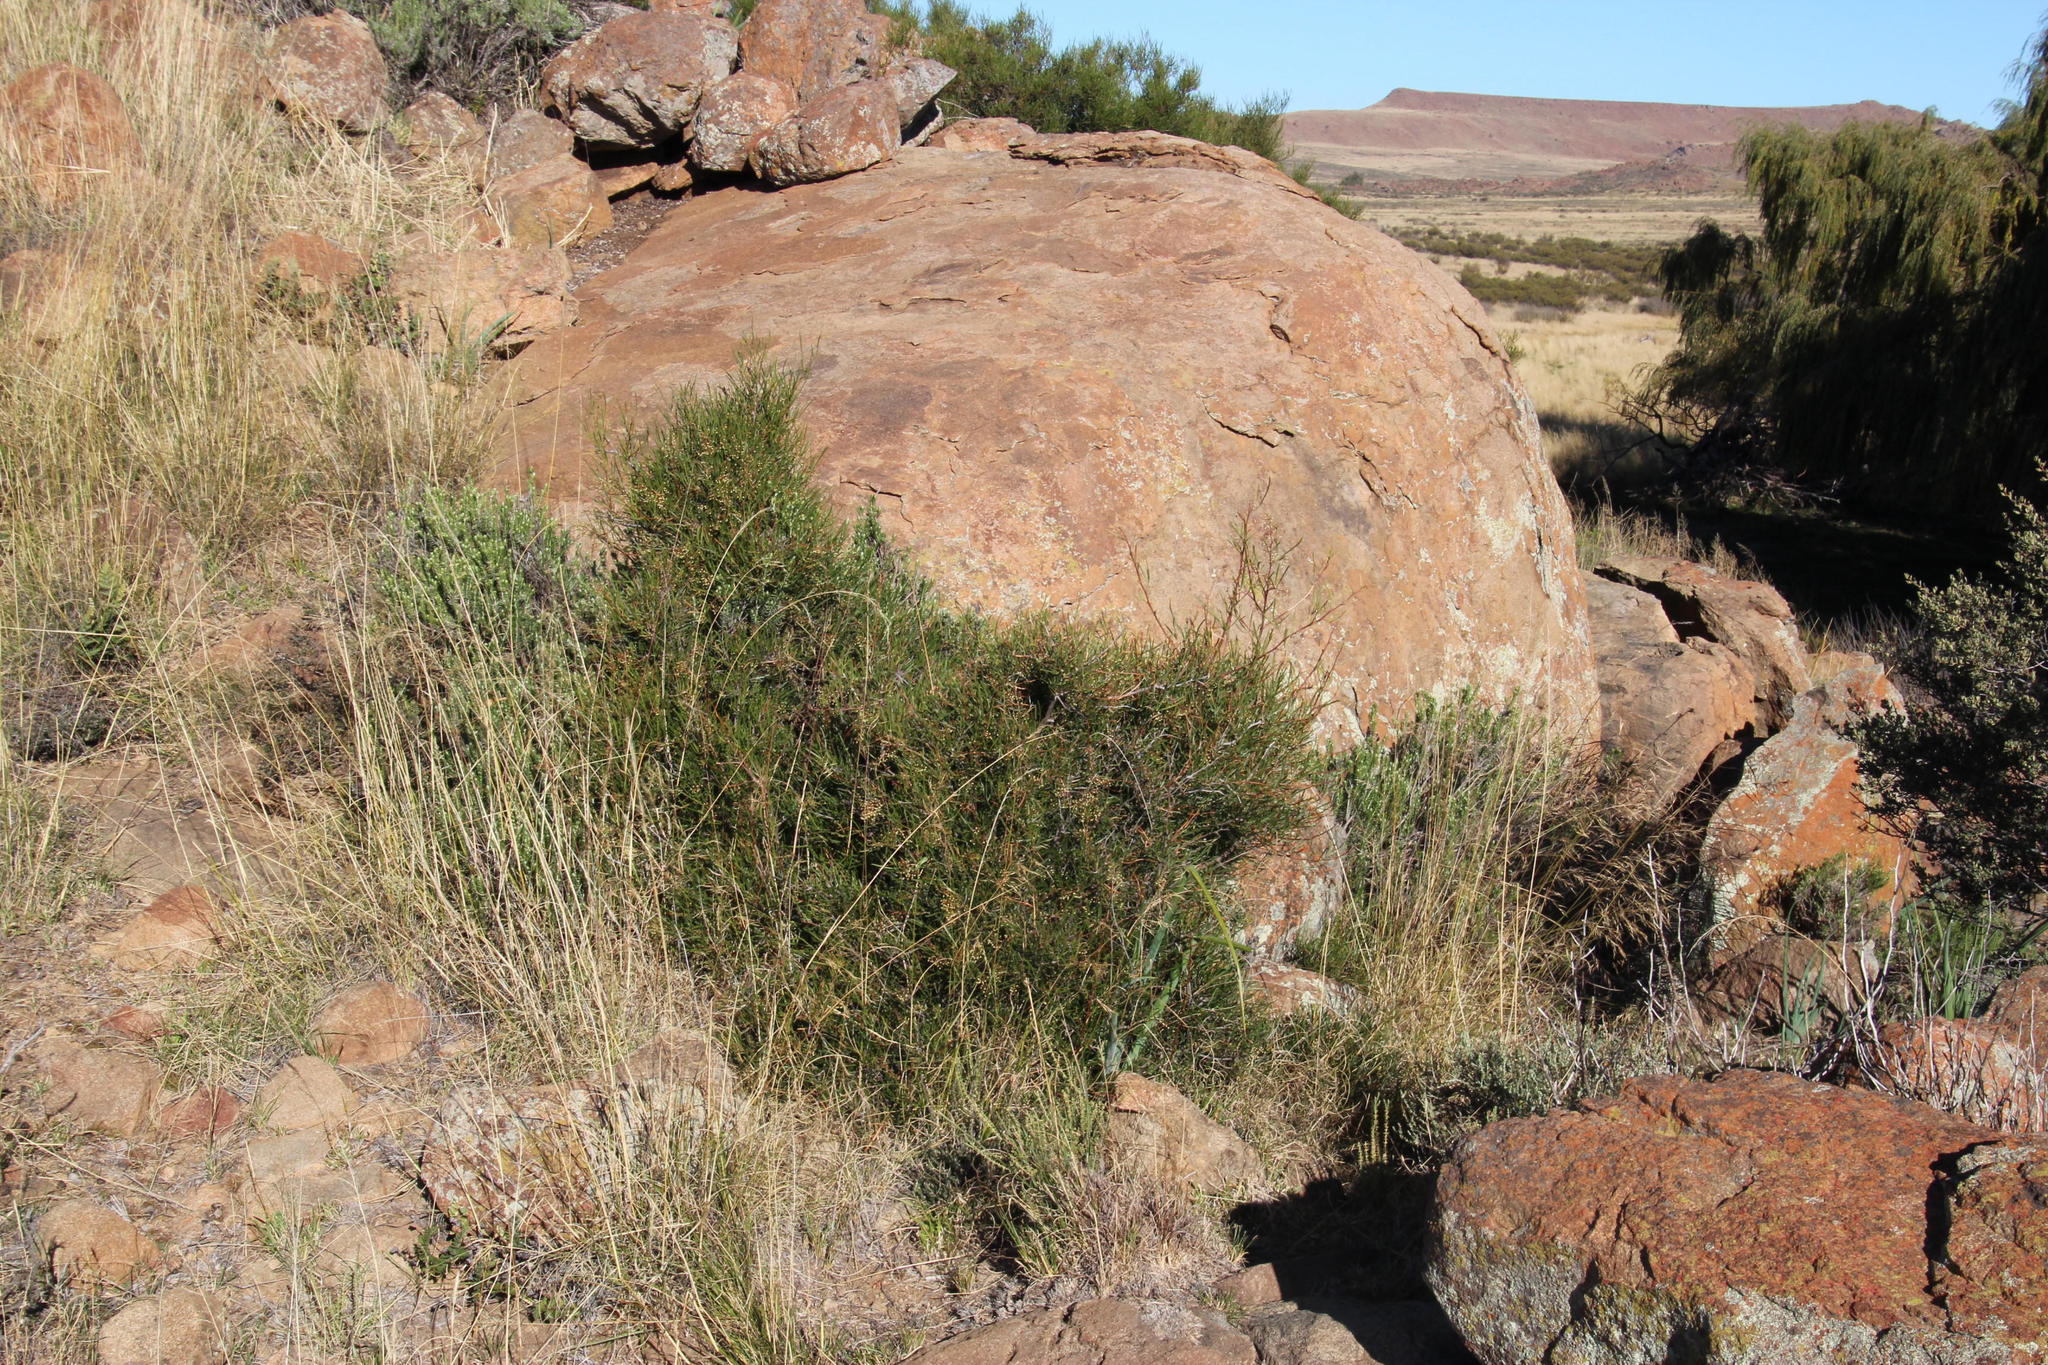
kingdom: Plantae
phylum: Tracheophyta
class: Magnoliopsida
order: Sapindales
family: Anacardiaceae
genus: Searsia
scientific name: Searsia dregeana
